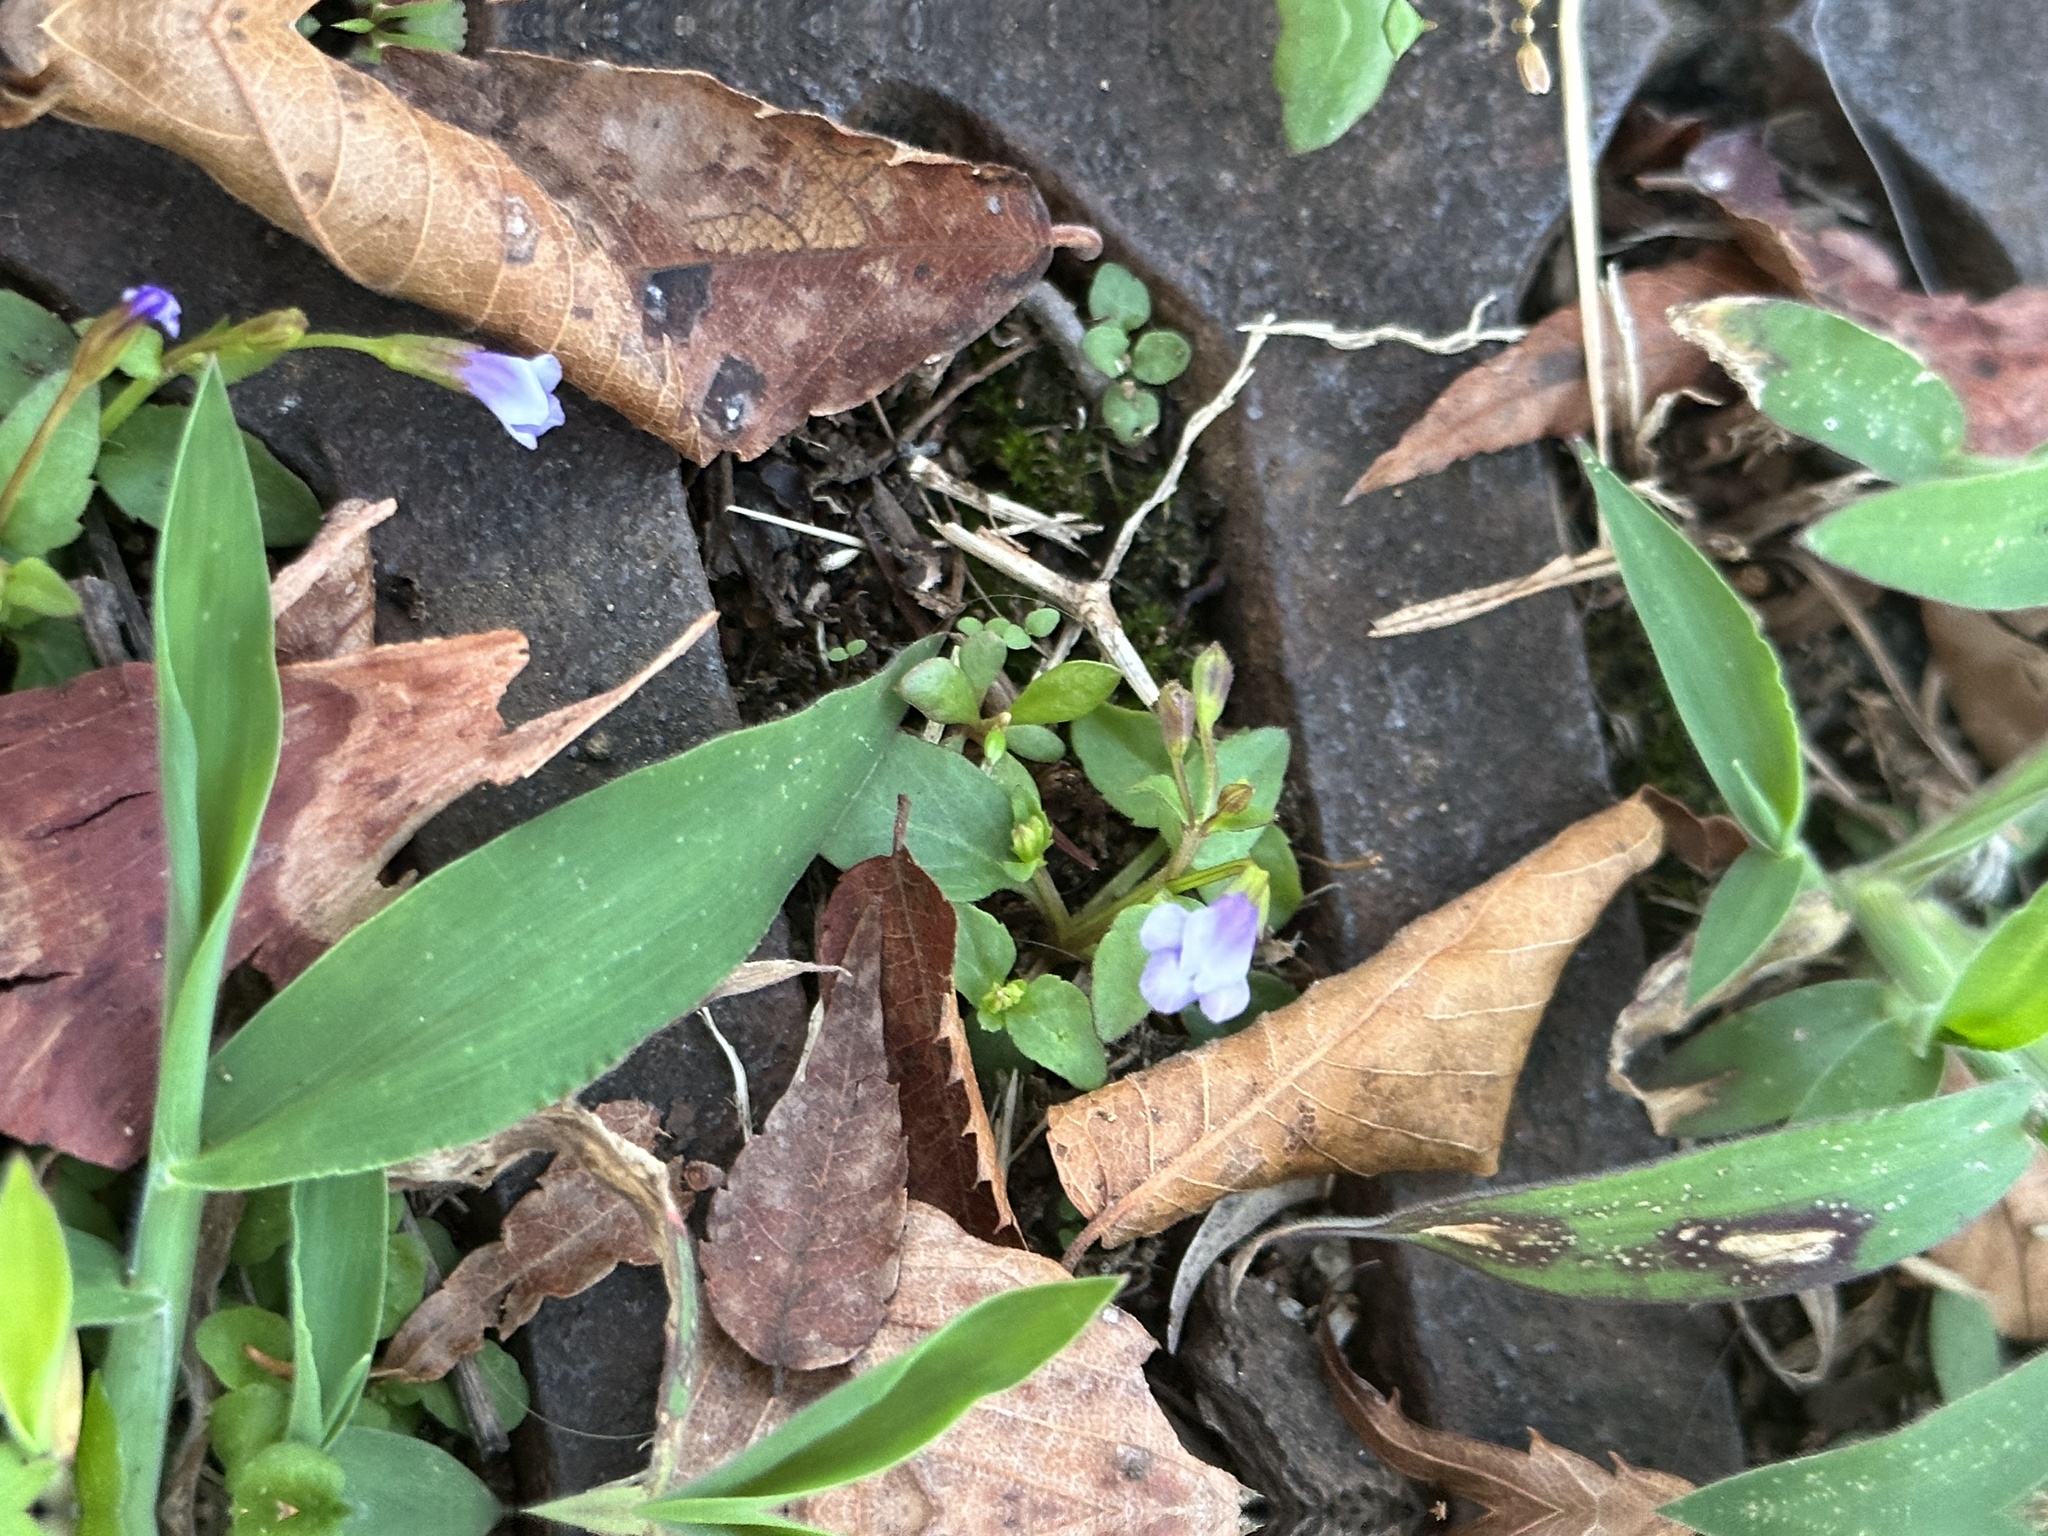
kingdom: Plantae
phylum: Tracheophyta
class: Magnoliopsida
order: Lamiales
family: Linderniaceae
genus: Torenia
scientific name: Torenia crustacea
